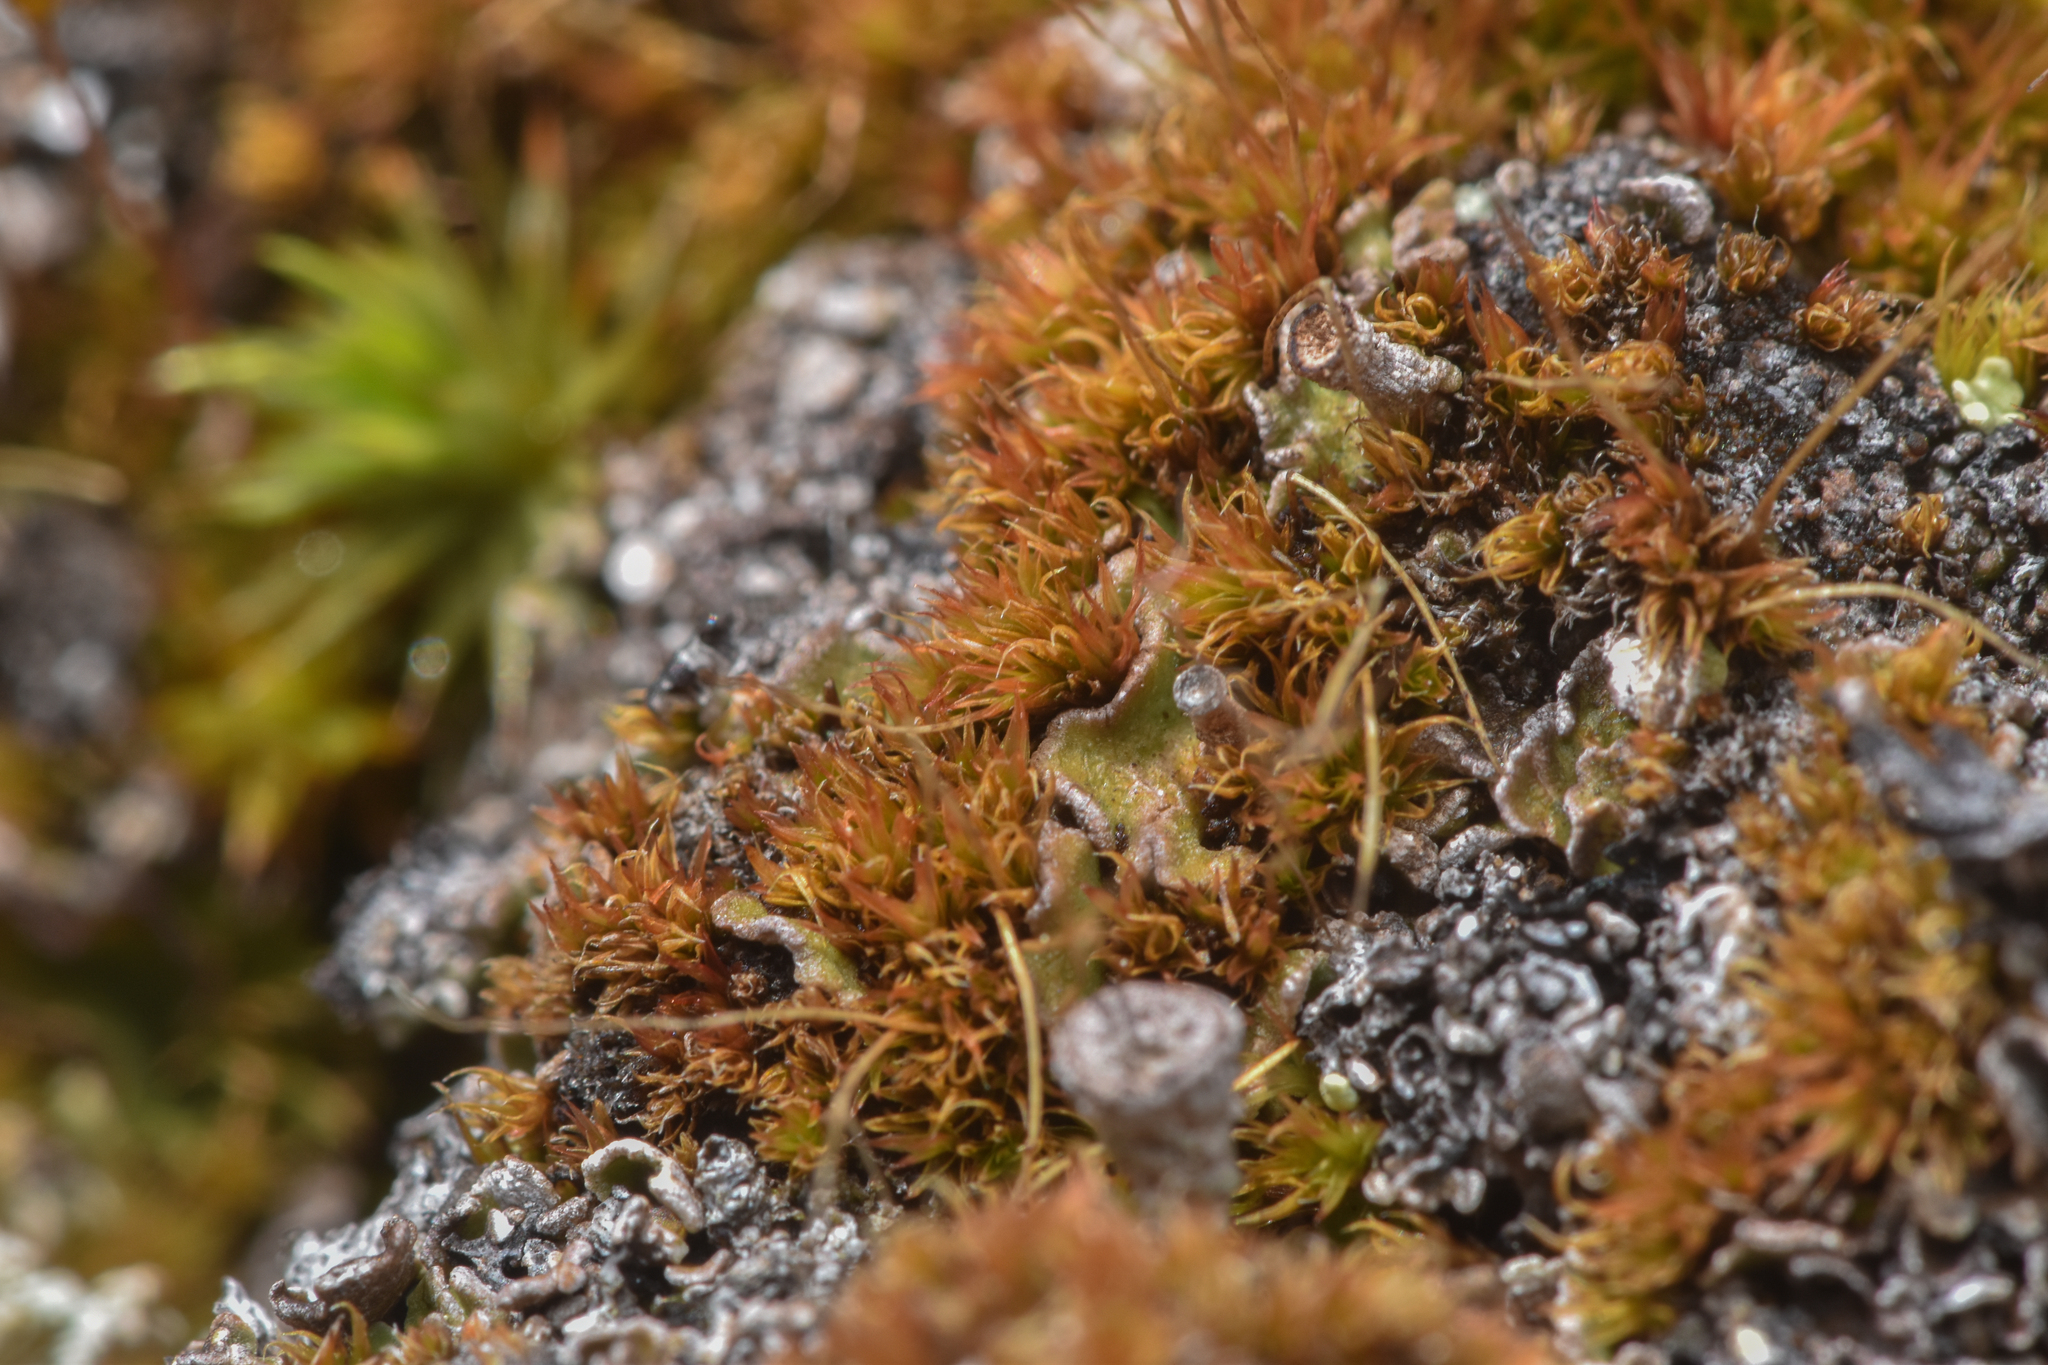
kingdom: Plantae
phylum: Bryophyta
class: Bryopsida
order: Dicranales
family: Ditrichaceae
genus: Ceratodon
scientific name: Ceratodon purpureus
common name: Redshank
